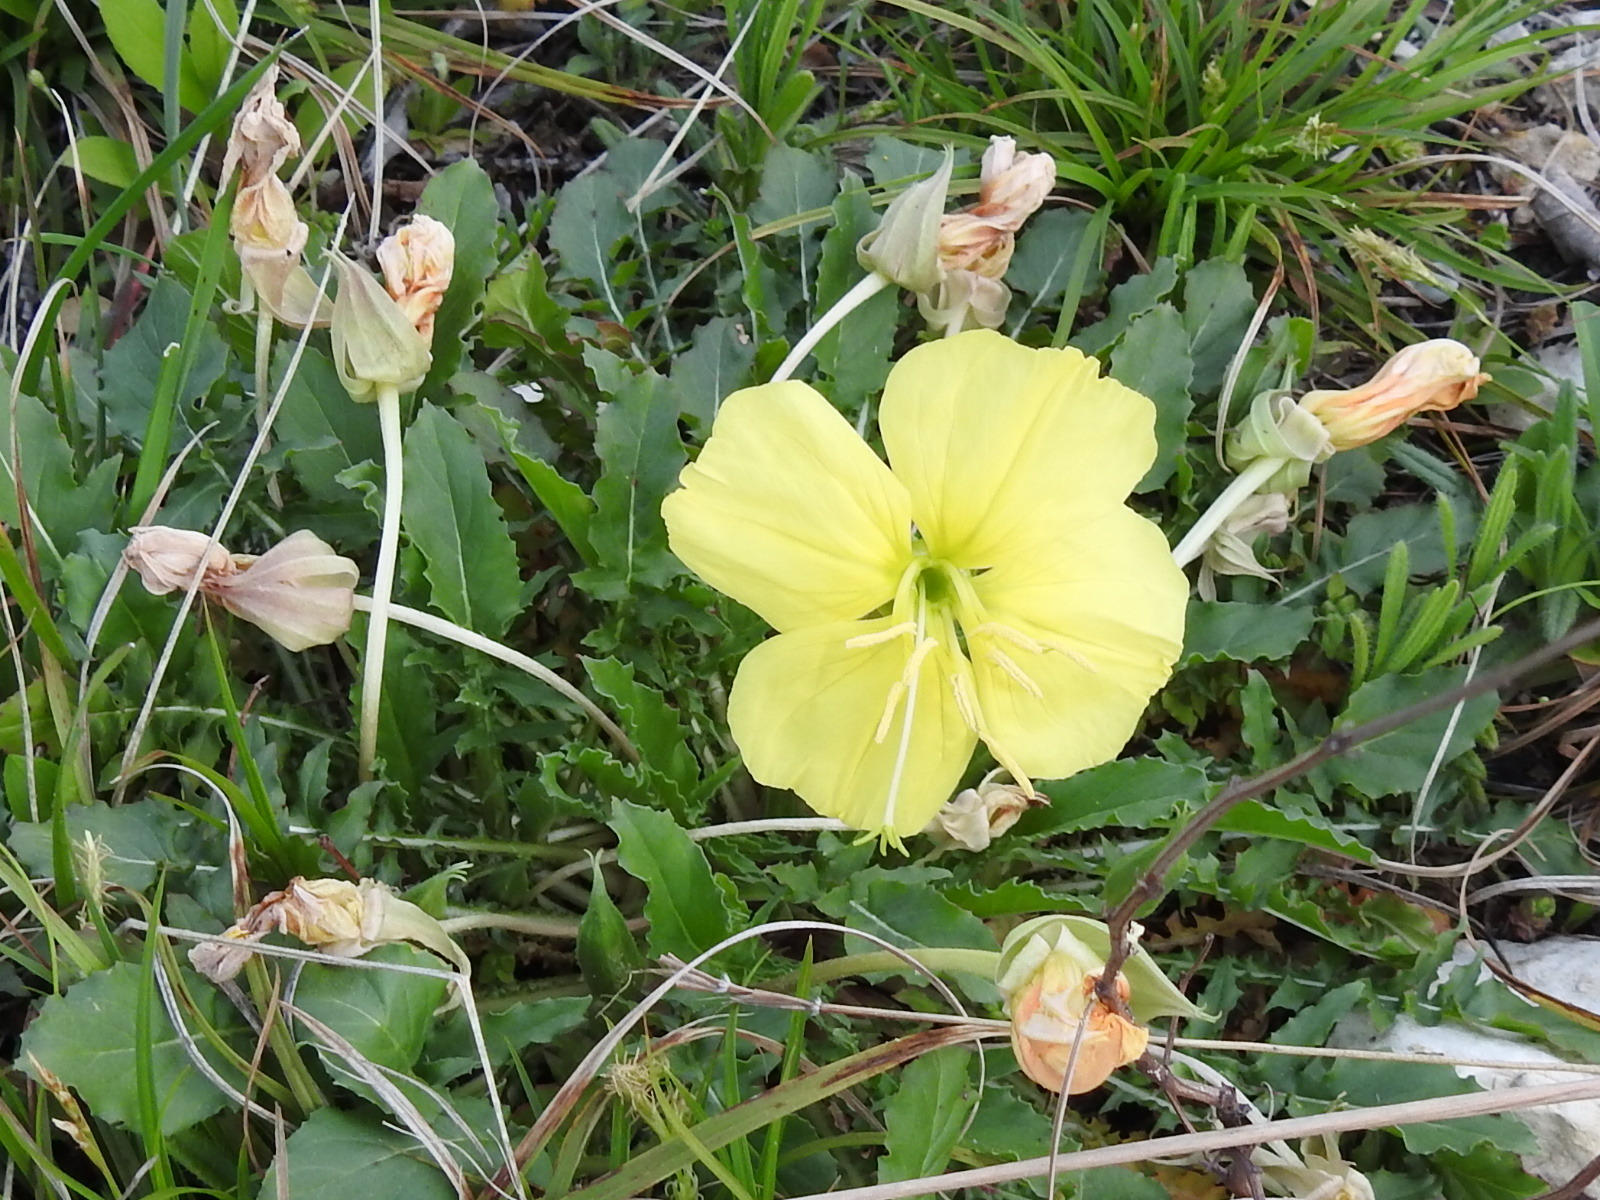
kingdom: Plantae
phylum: Tracheophyta
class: Magnoliopsida
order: Myrtales
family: Onagraceae
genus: Oenothera
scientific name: Oenothera triloba
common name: Sessile evening-primrose
